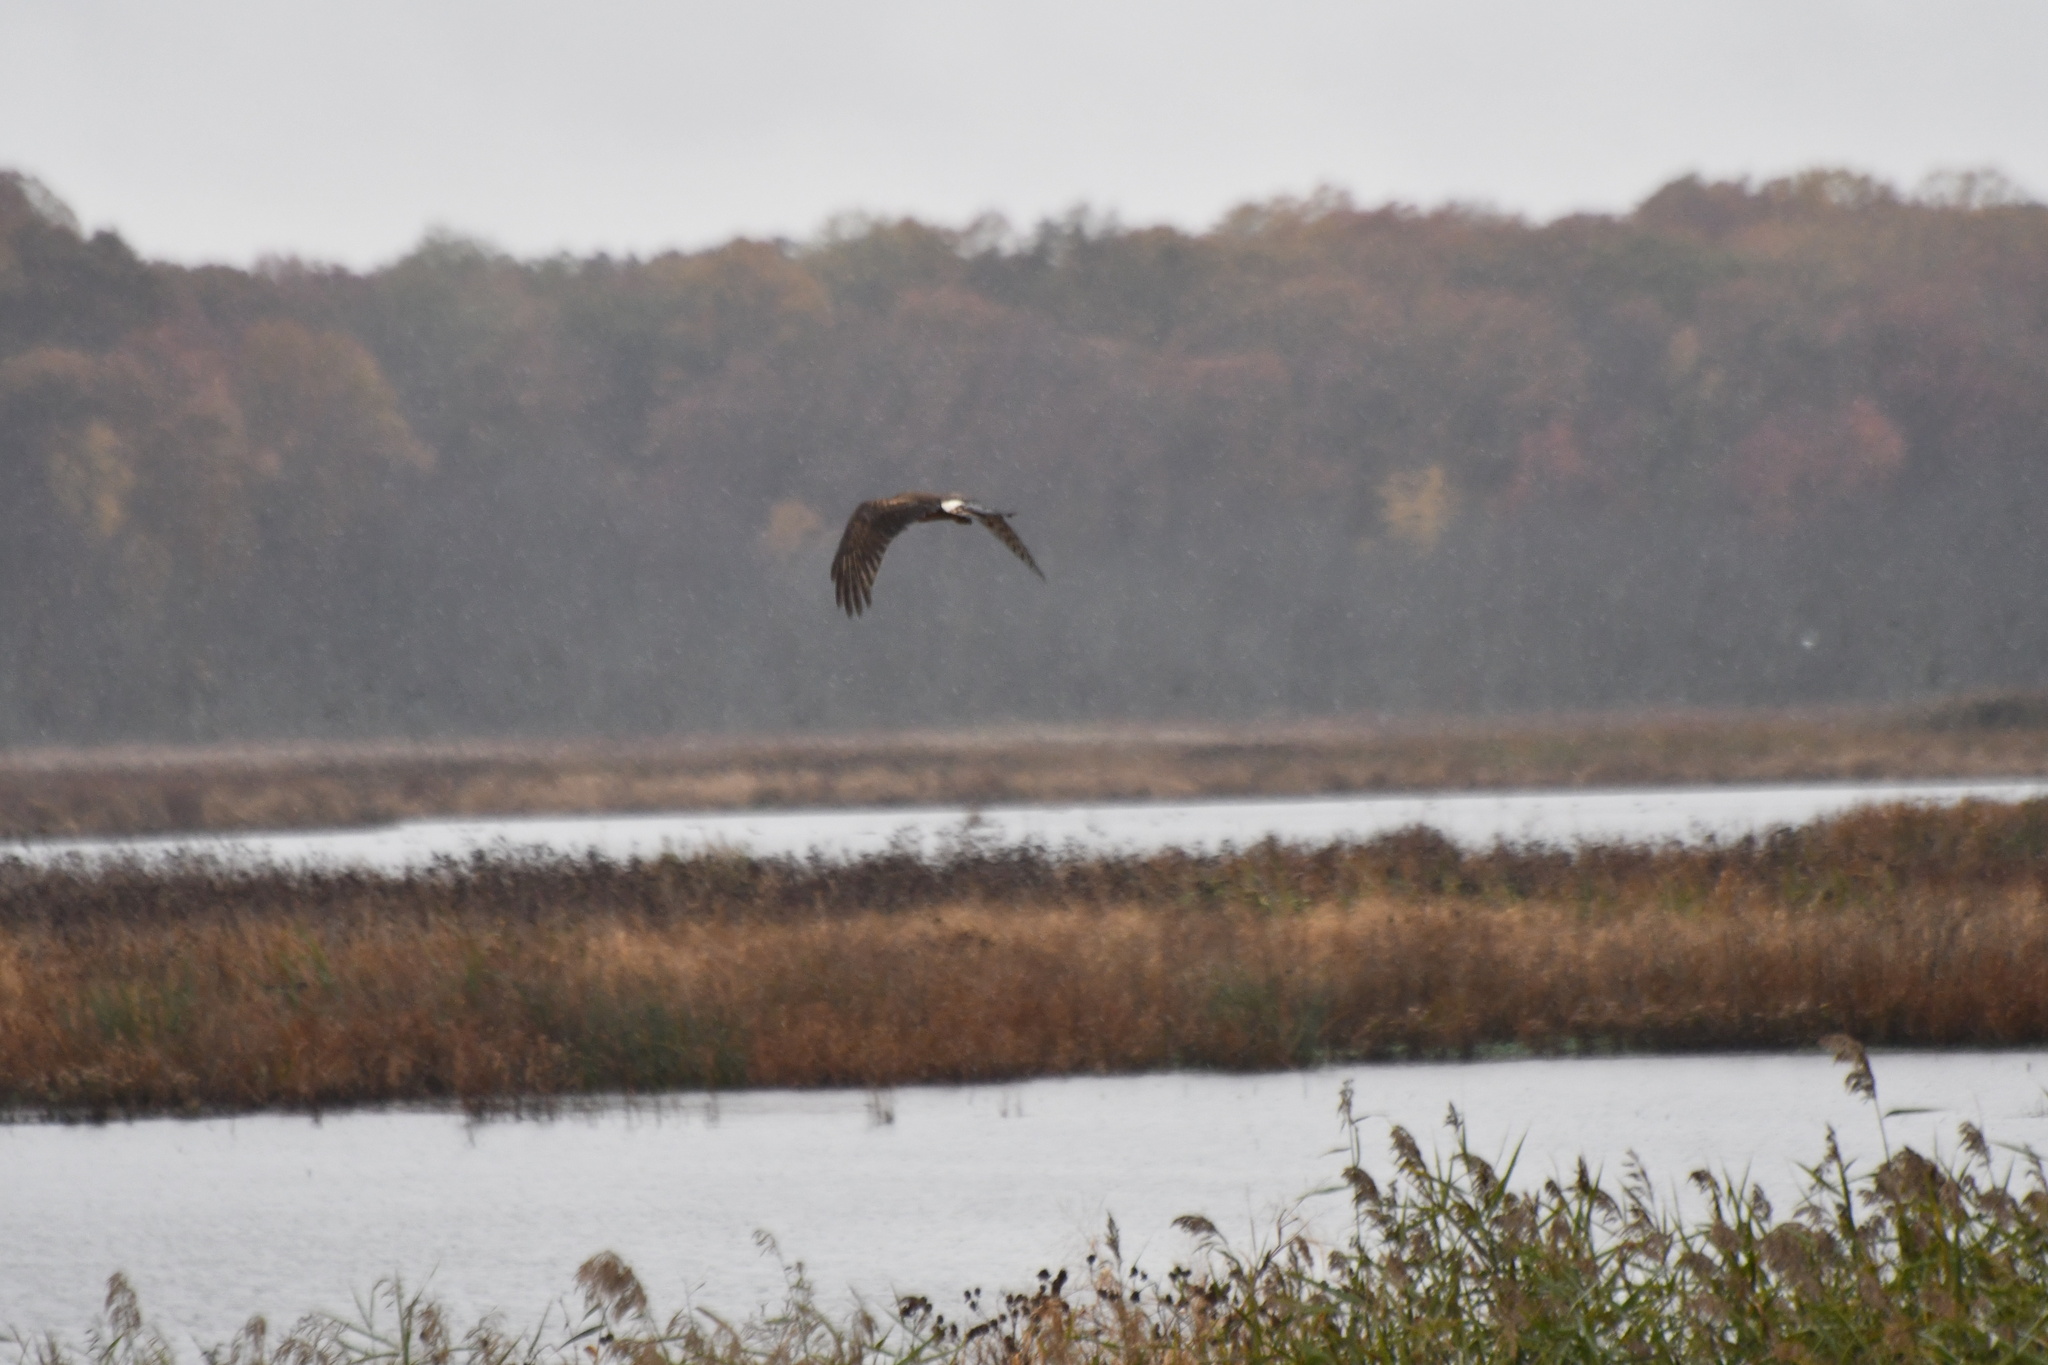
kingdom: Animalia
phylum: Chordata
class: Aves
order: Accipitriformes
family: Accipitridae
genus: Circus
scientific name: Circus cyaneus
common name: Hen harrier
